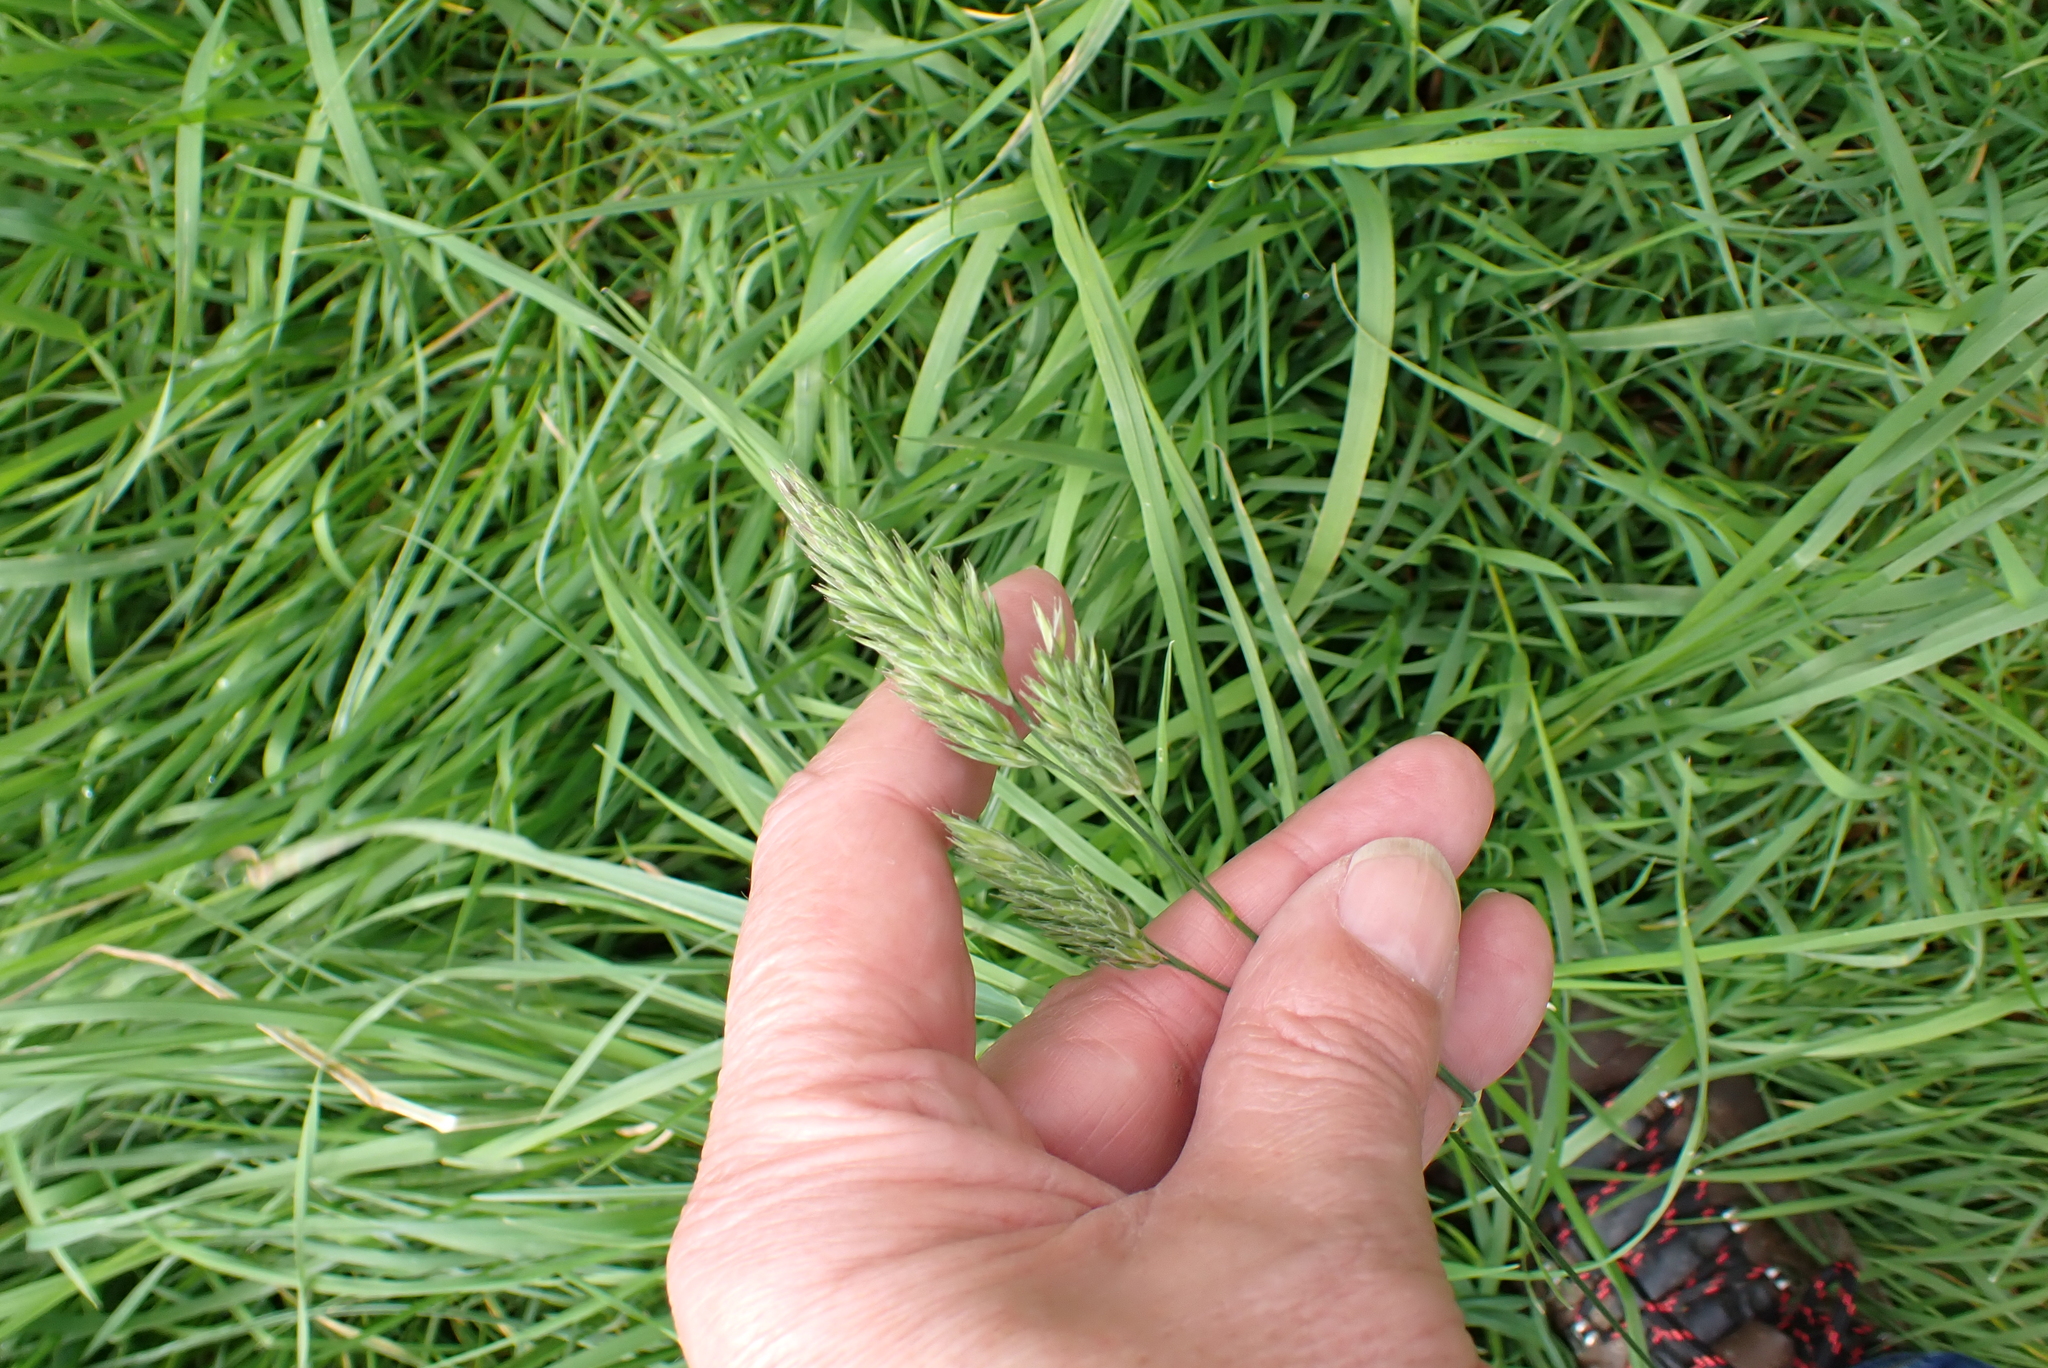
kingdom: Plantae
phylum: Tracheophyta
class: Liliopsida
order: Poales
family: Poaceae
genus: Dactylis
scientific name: Dactylis glomerata
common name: Orchardgrass
